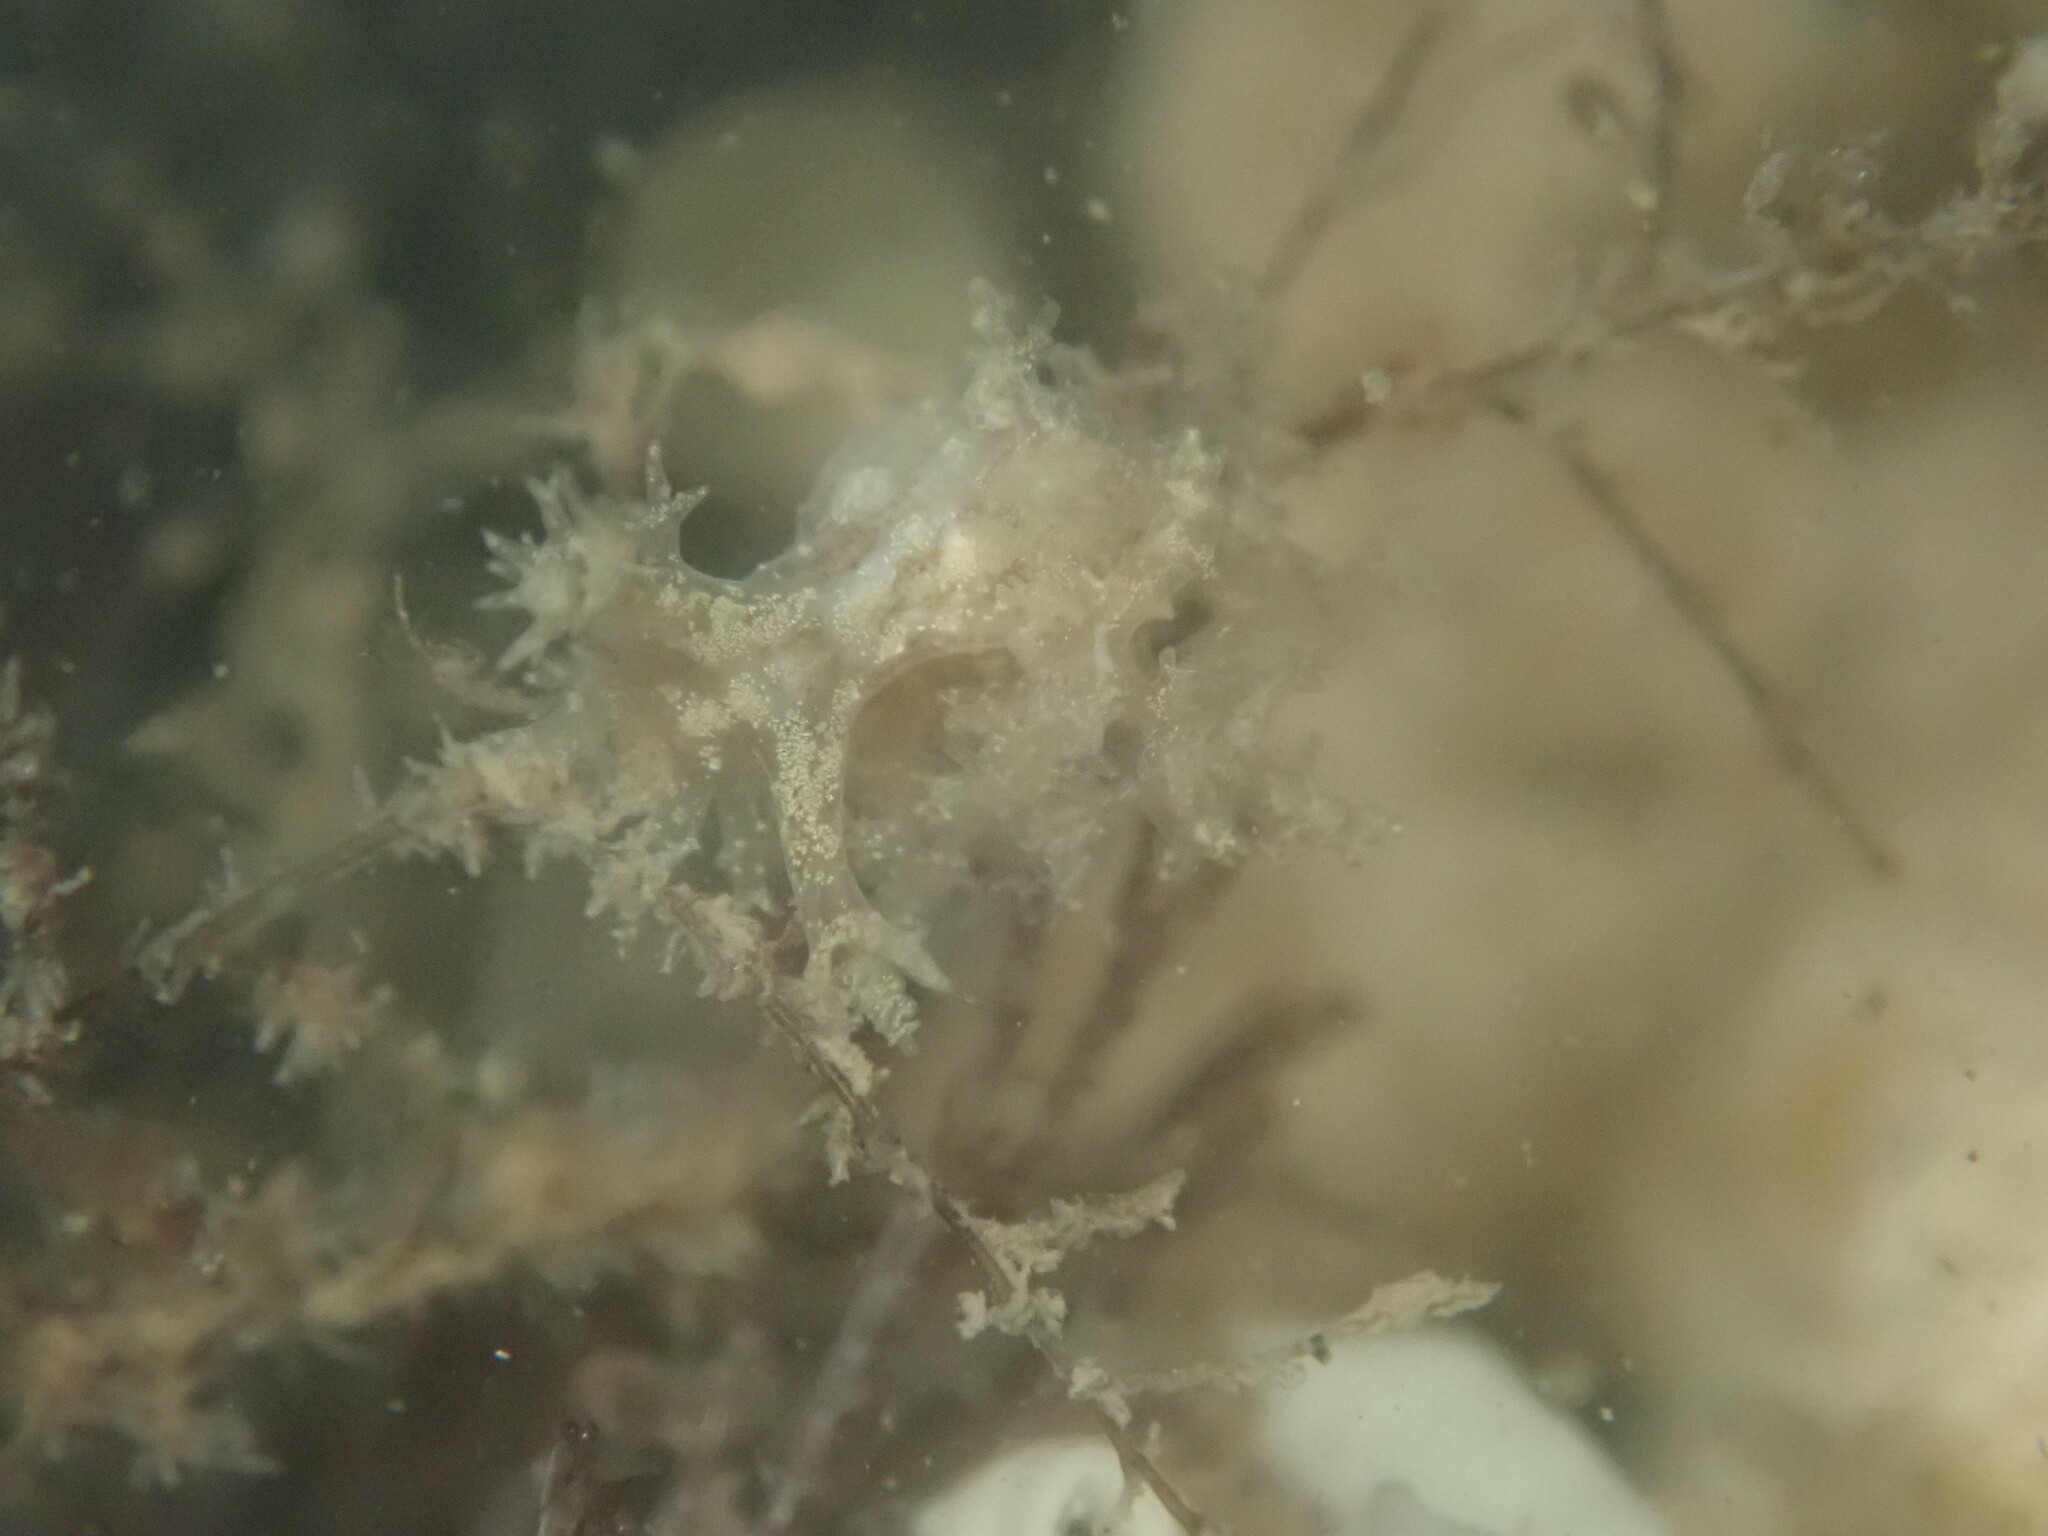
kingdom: Animalia
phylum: Mollusca
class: Gastropoda
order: Nudibranchia
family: Dendronotidae
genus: Dendronotus
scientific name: Dendronotus venustus
